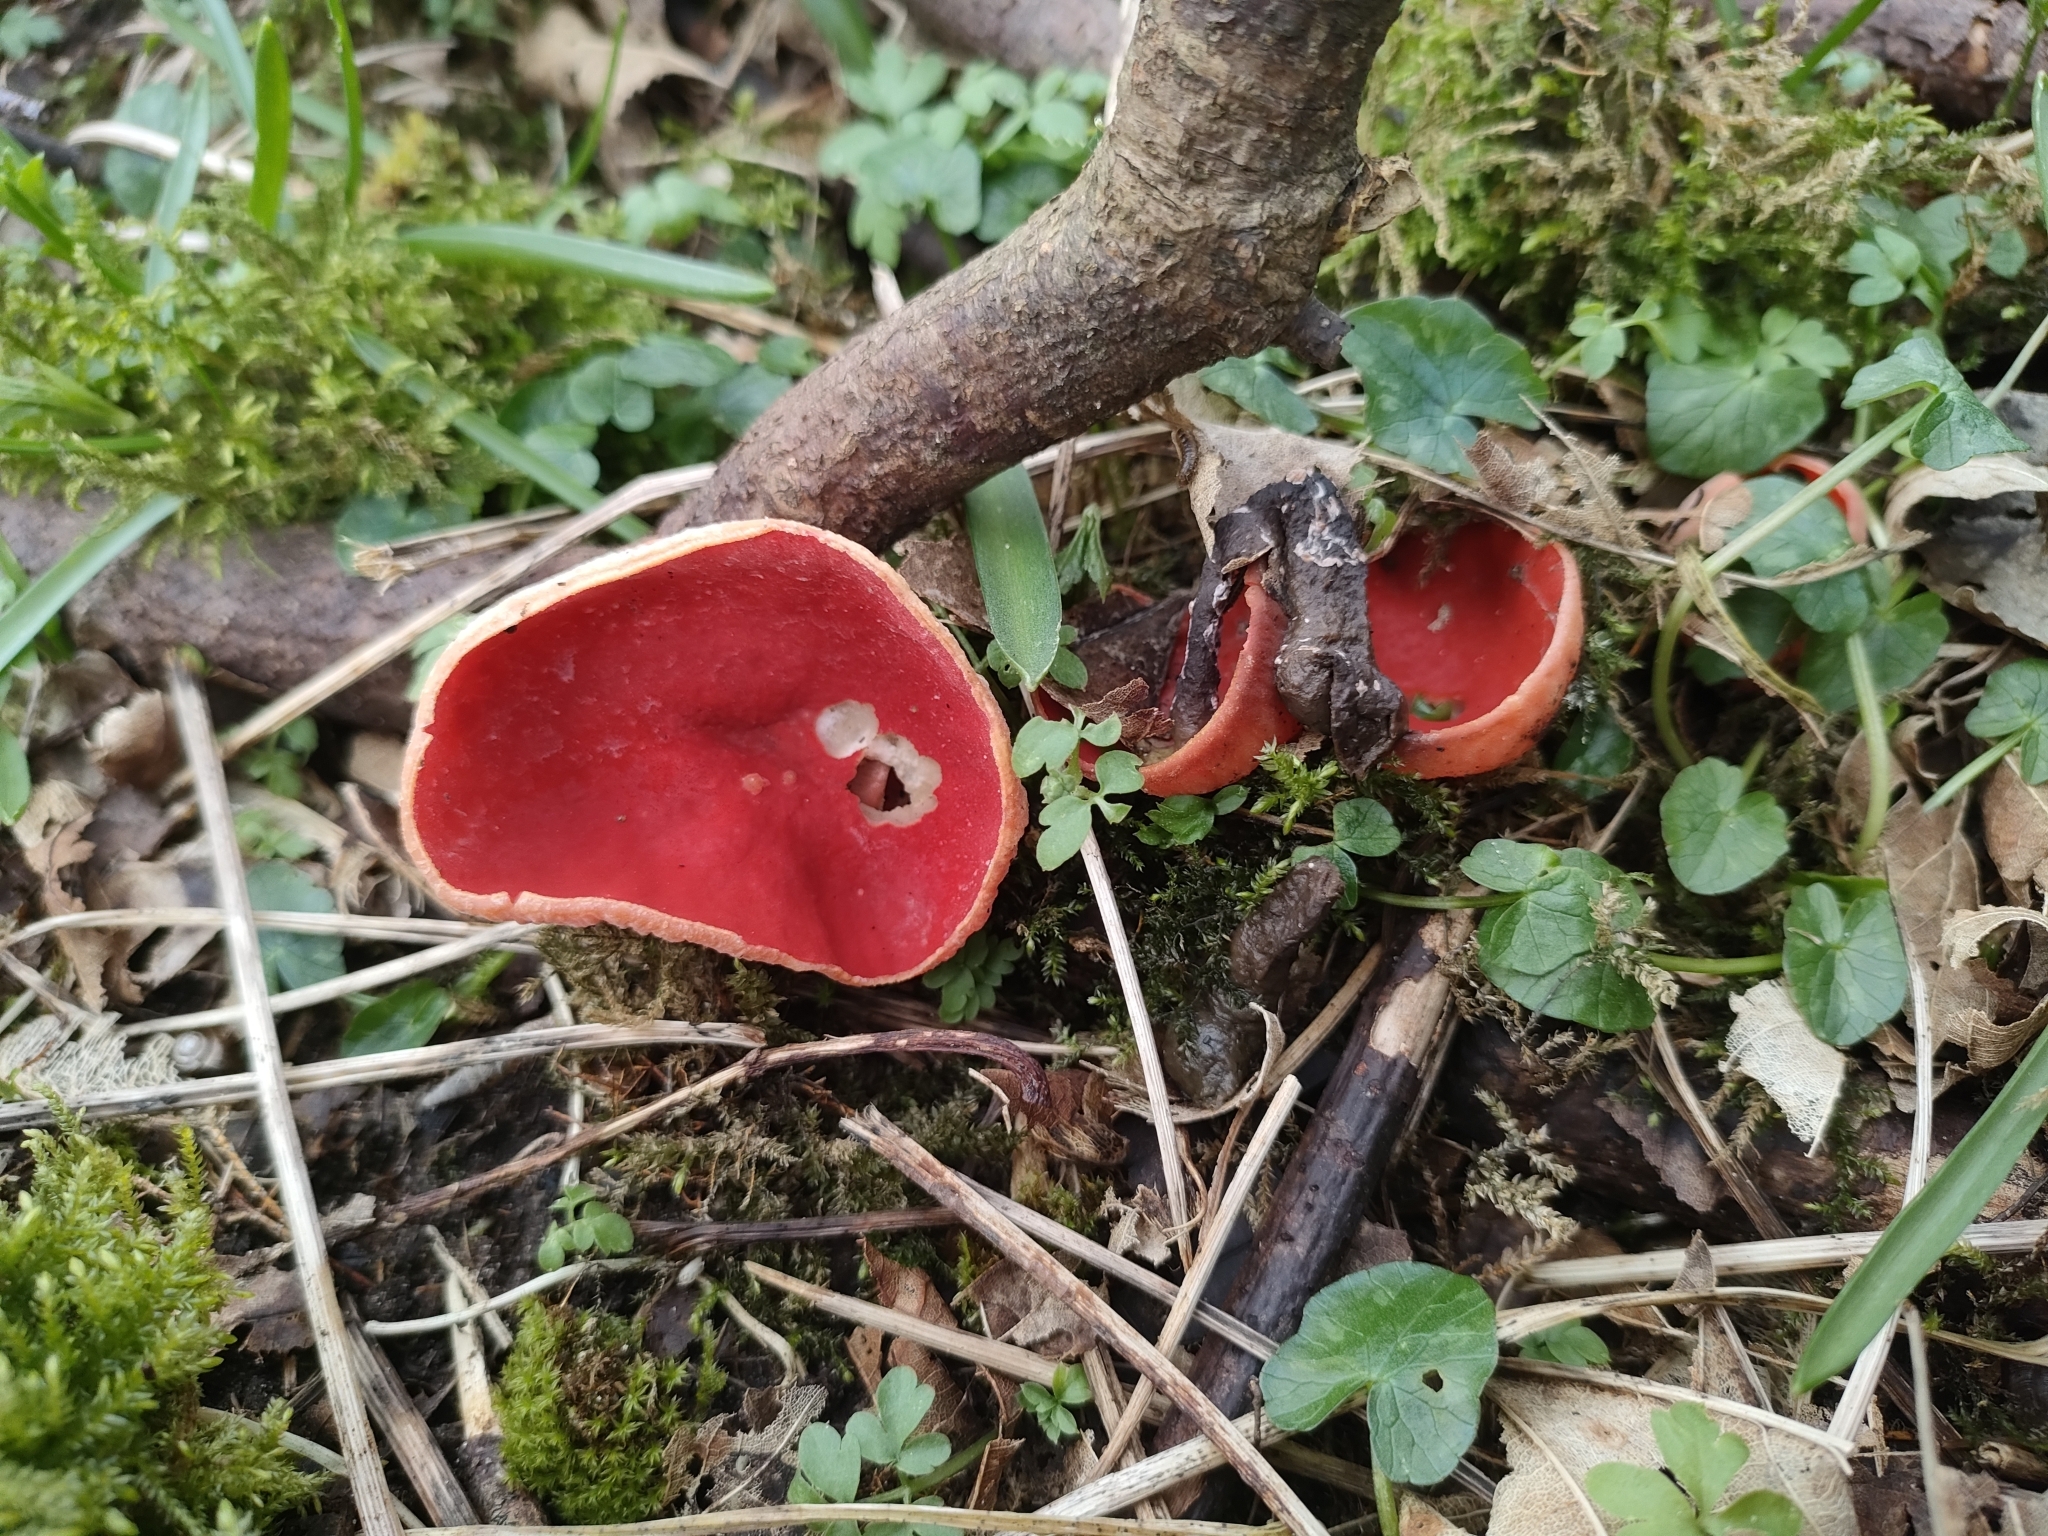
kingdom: Fungi
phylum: Ascomycota
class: Pezizomycetes
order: Pezizales
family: Sarcoscyphaceae
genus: Sarcoscypha
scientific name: Sarcoscypha
